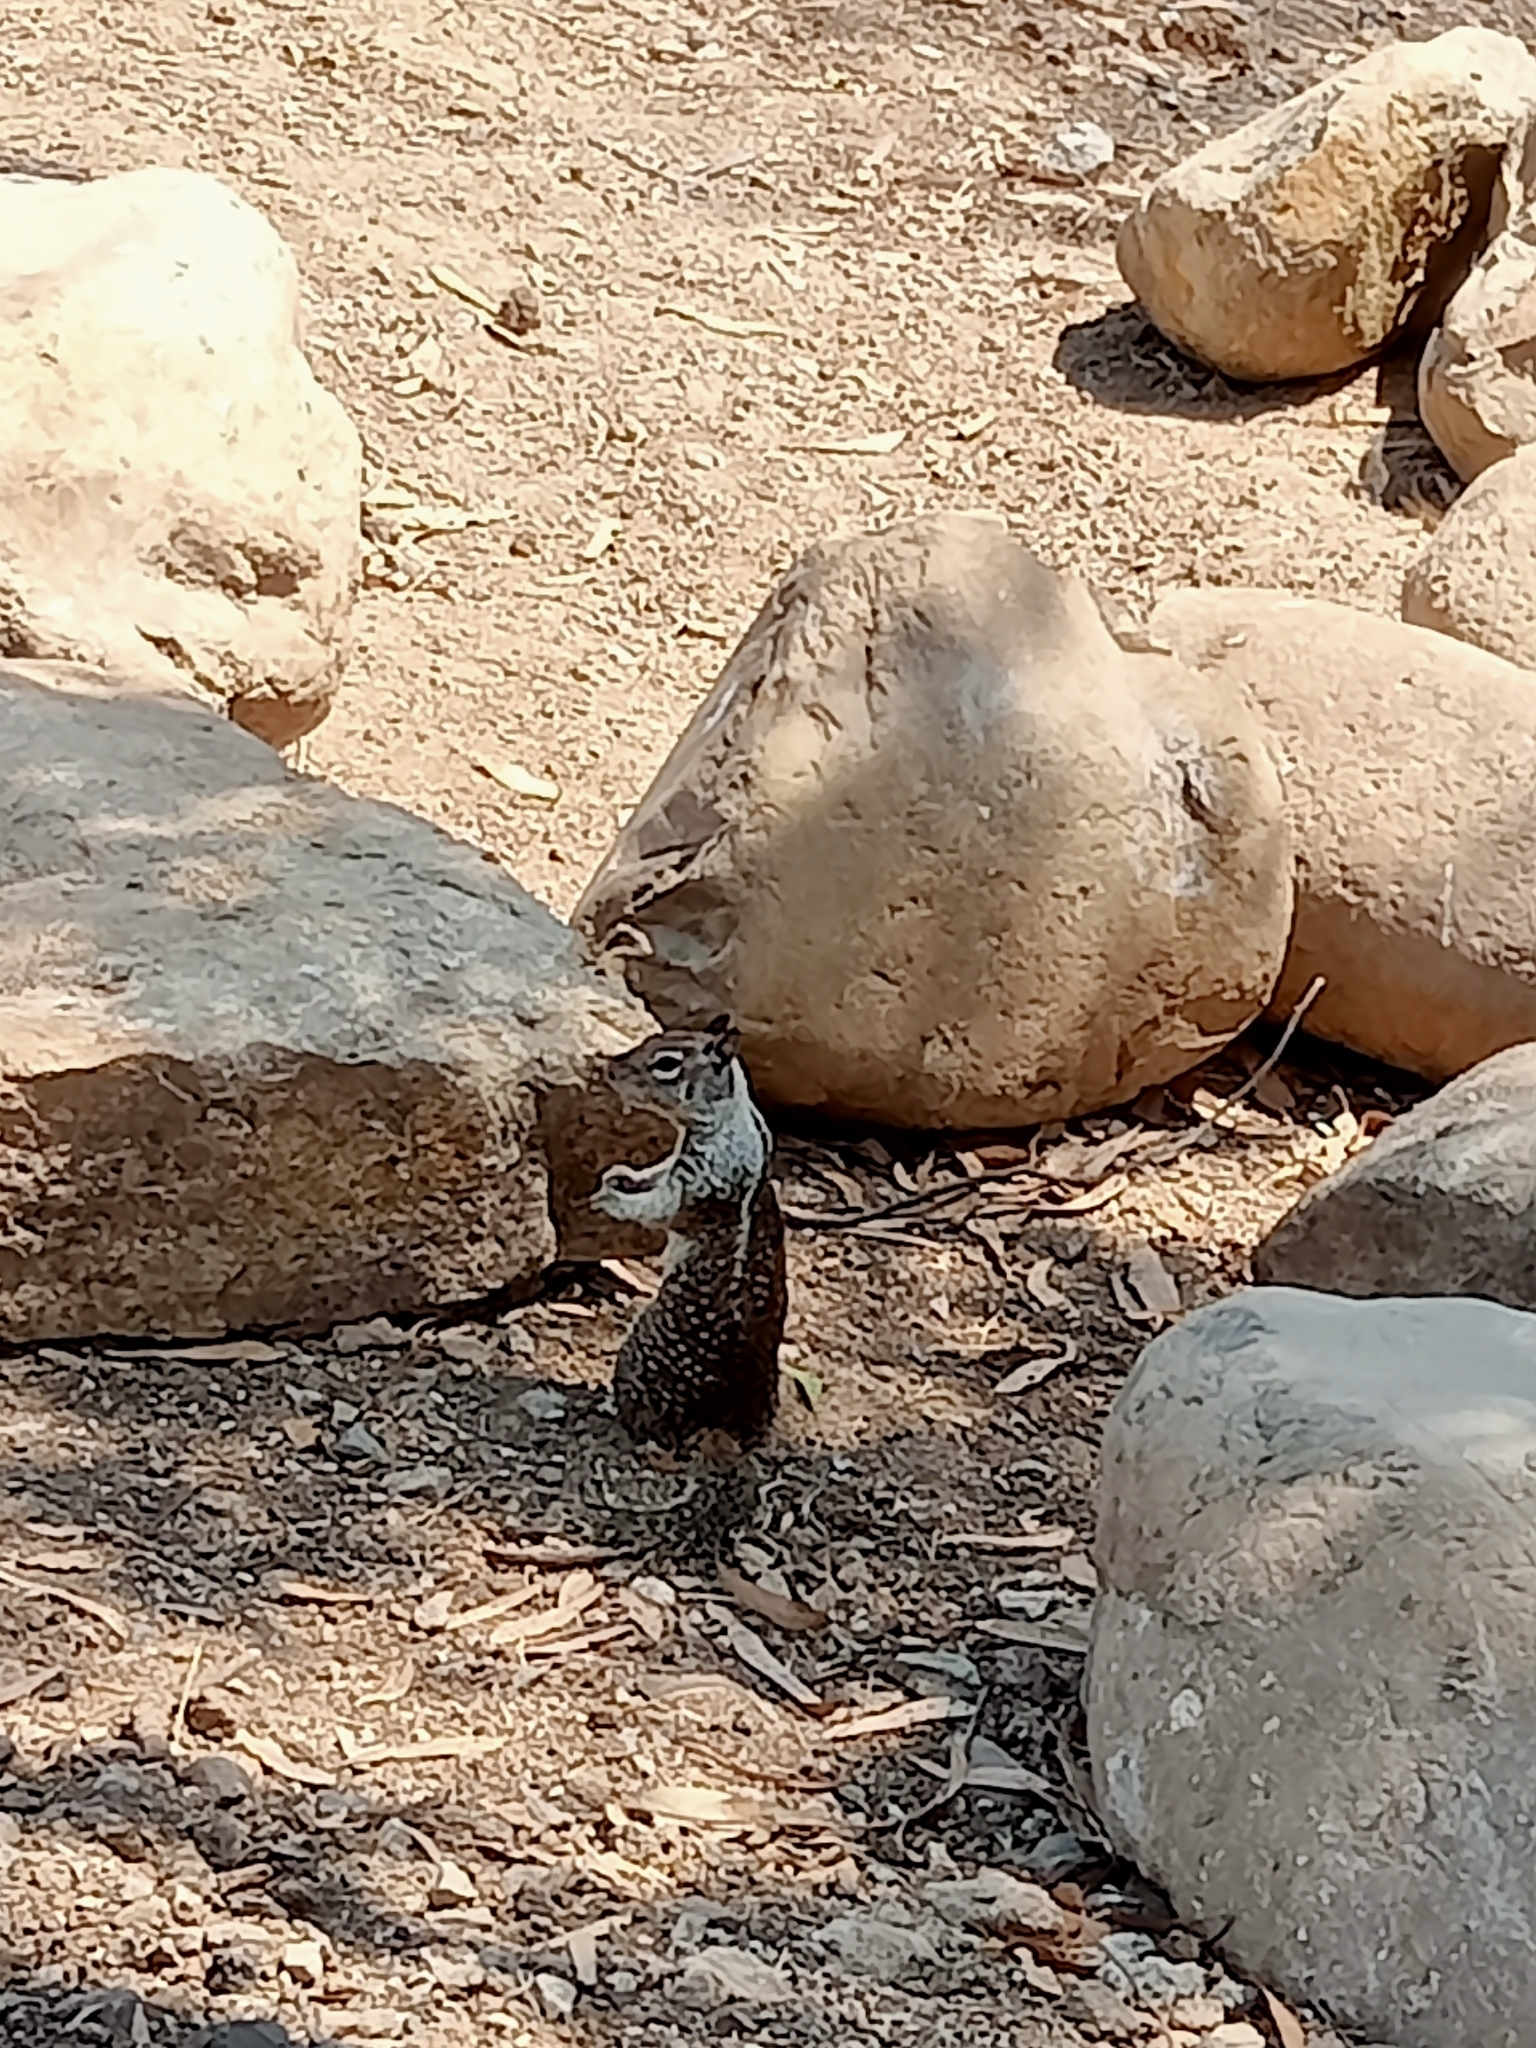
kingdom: Animalia
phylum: Chordata
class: Mammalia
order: Rodentia
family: Sciuridae
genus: Otospermophilus
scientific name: Otospermophilus beecheyi
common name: California ground squirrel
